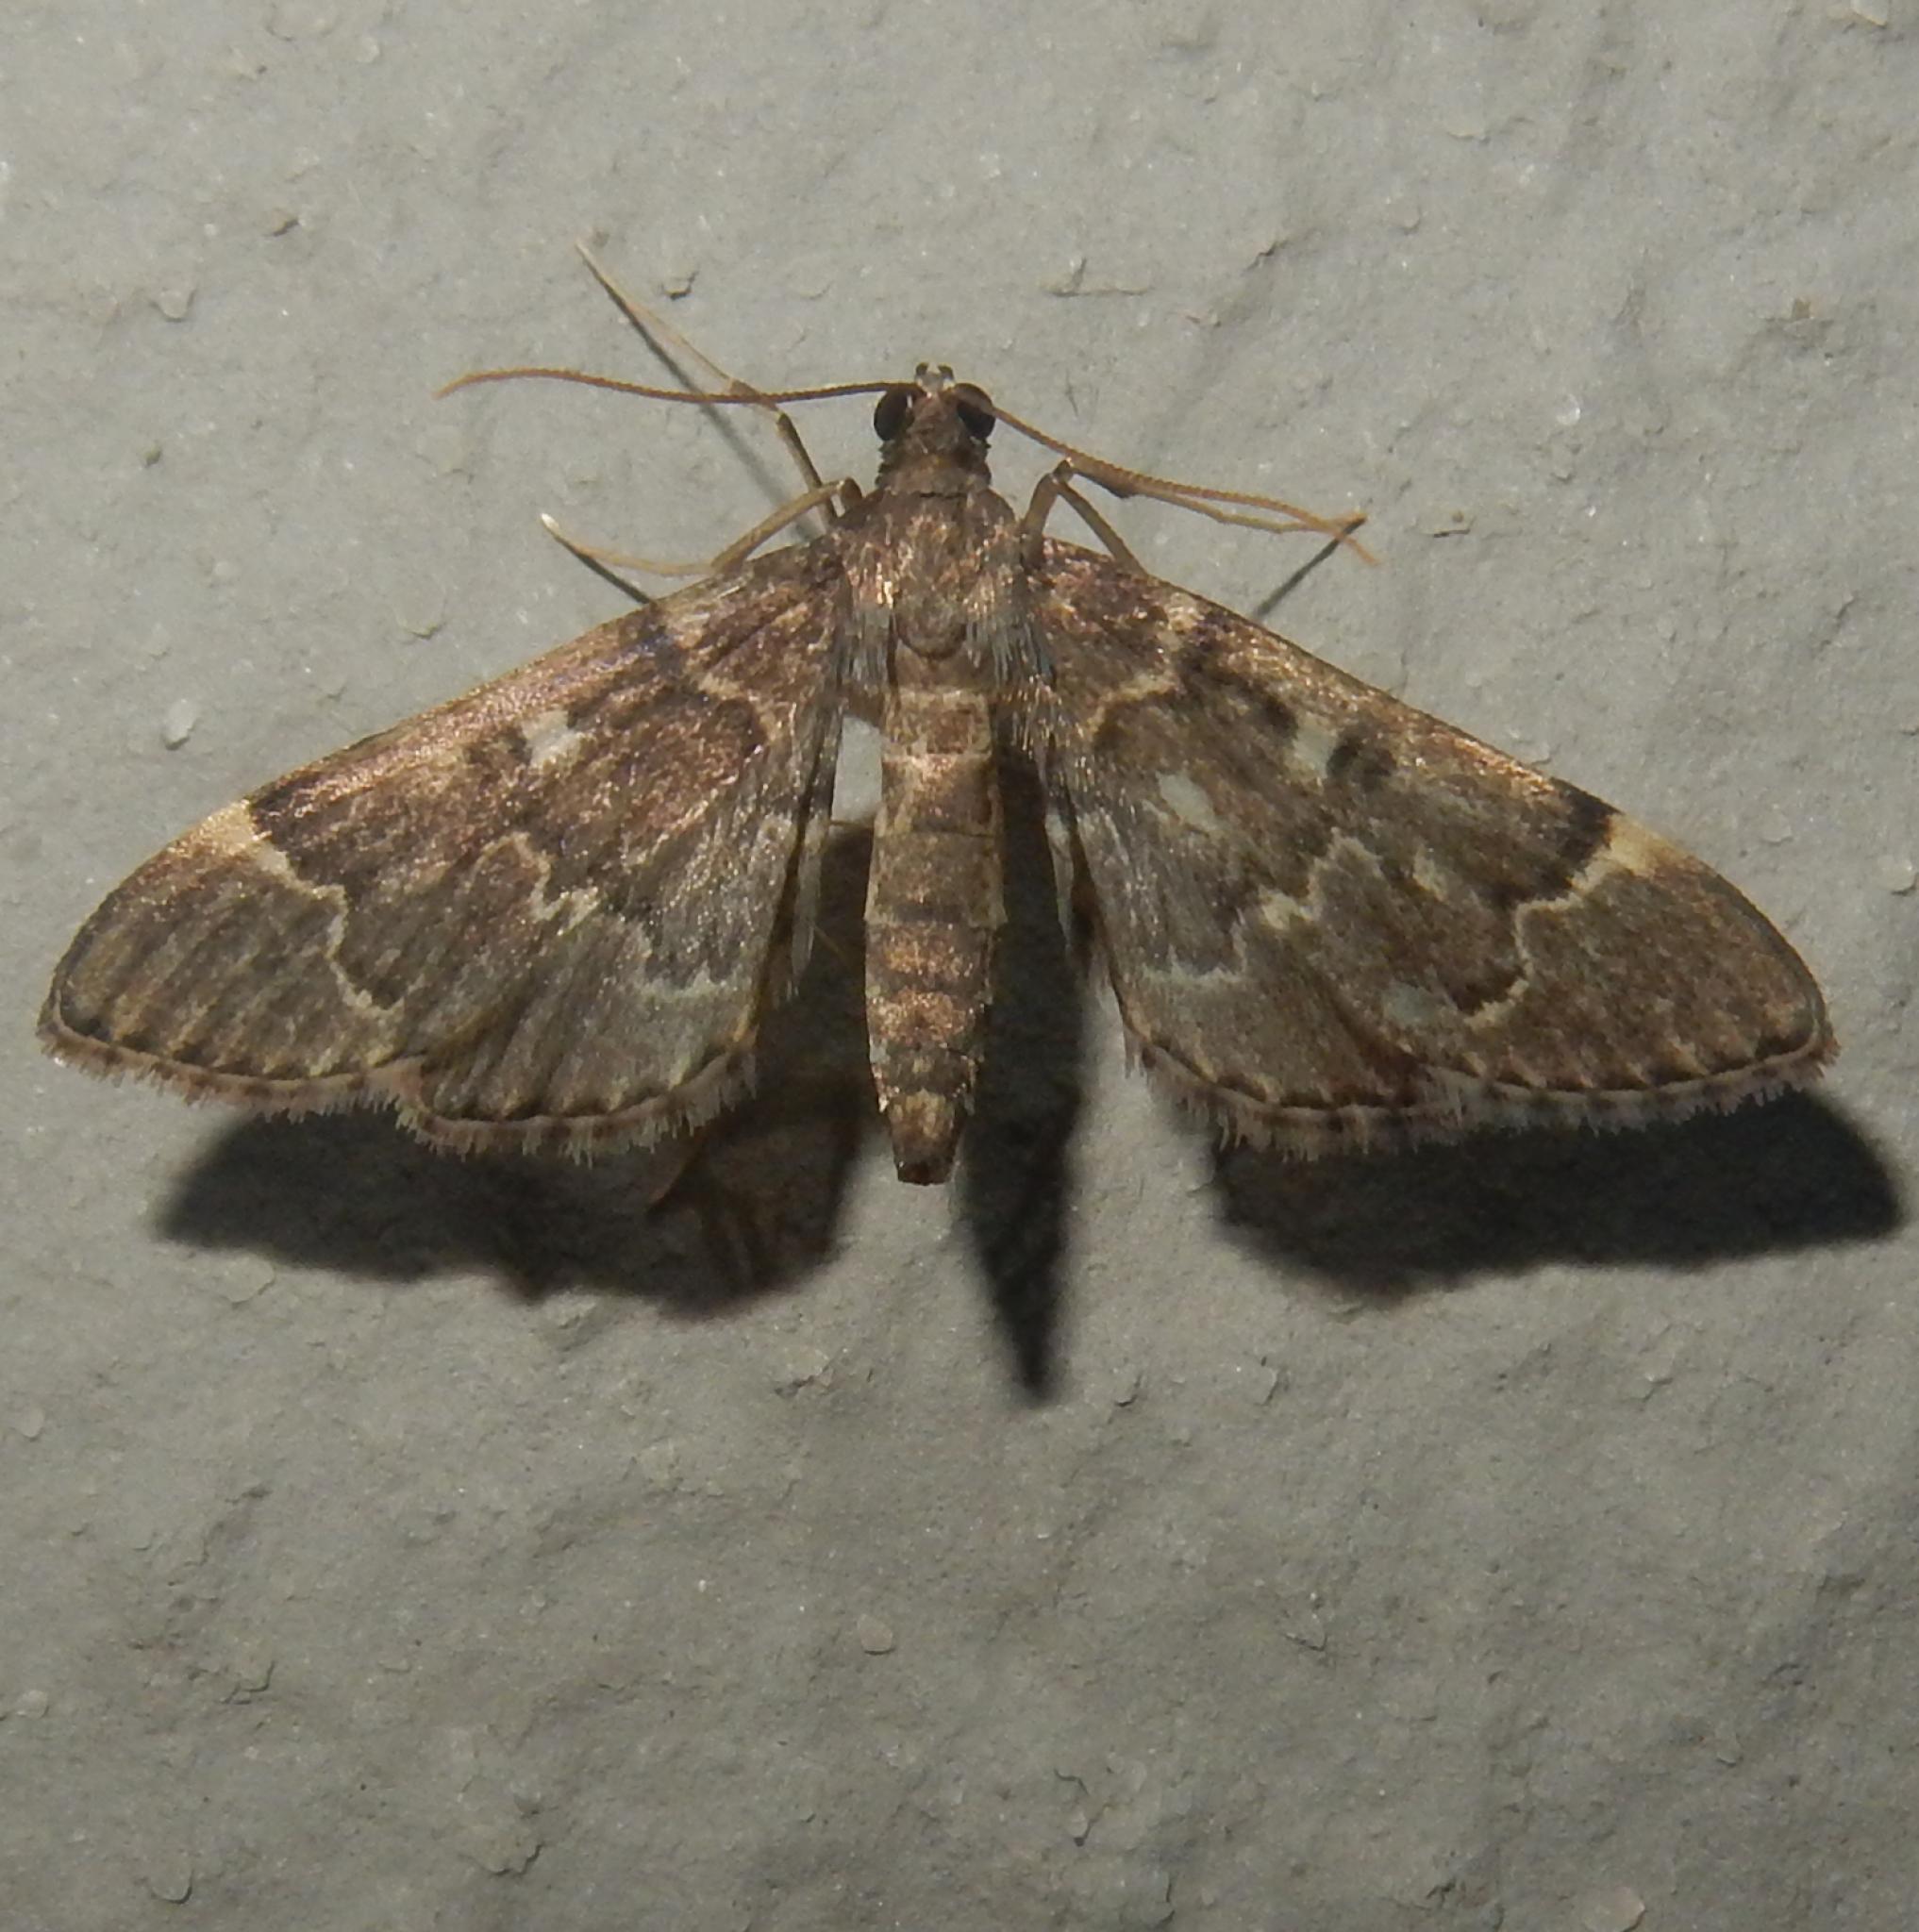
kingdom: Animalia
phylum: Arthropoda
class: Insecta
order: Lepidoptera
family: Crambidae
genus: Duponchelia
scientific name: Duponchelia lanceolalis
